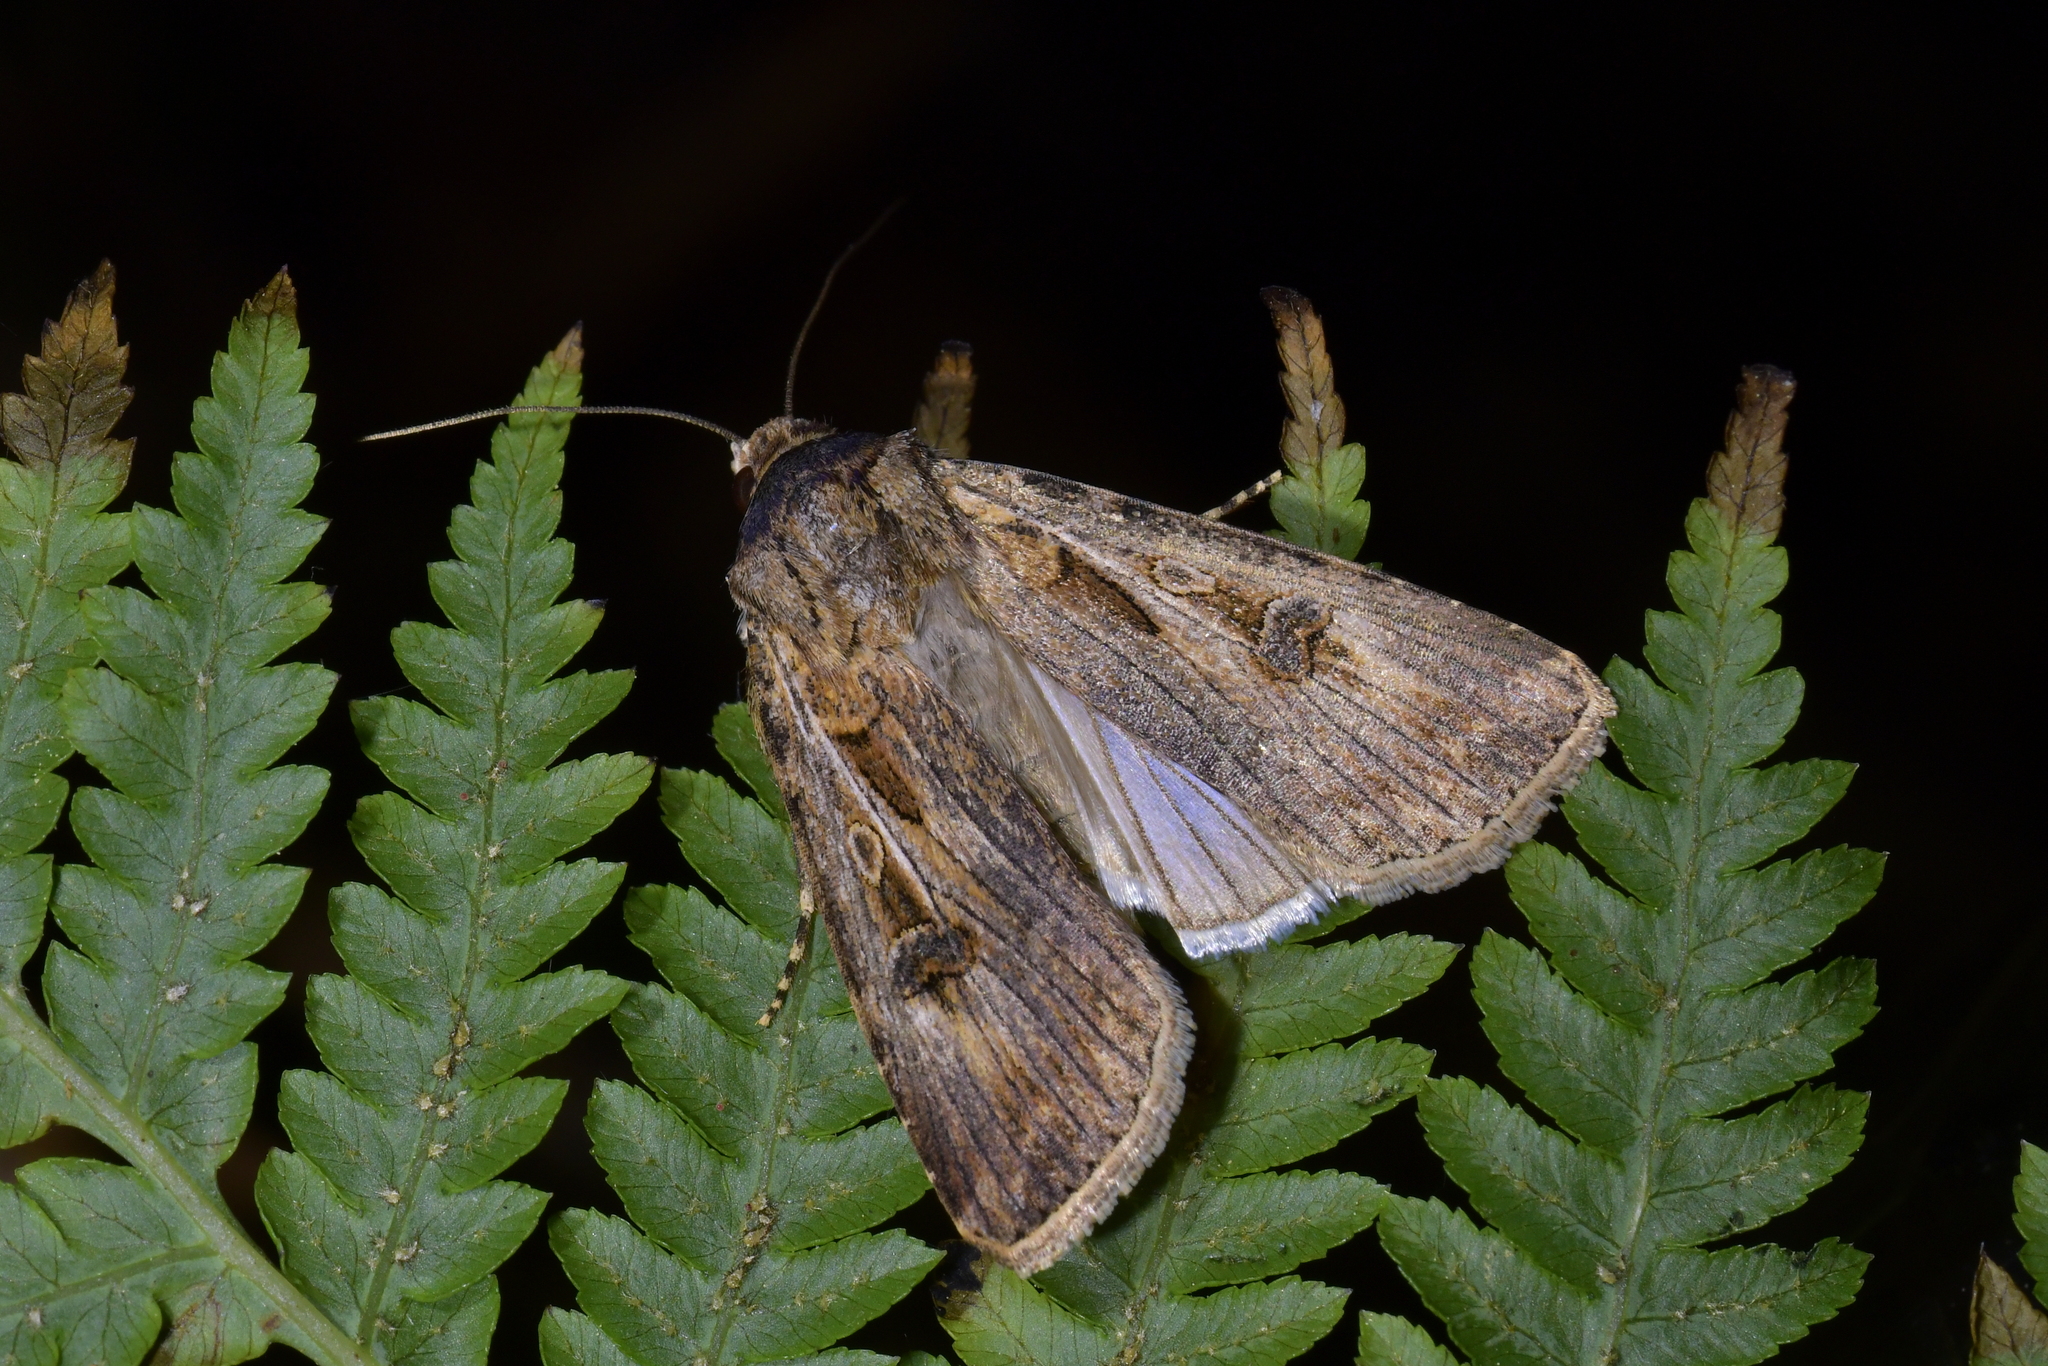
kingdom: Animalia
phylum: Arthropoda
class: Insecta
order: Lepidoptera
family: Noctuidae
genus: Agrotis
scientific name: Agrotis munda
